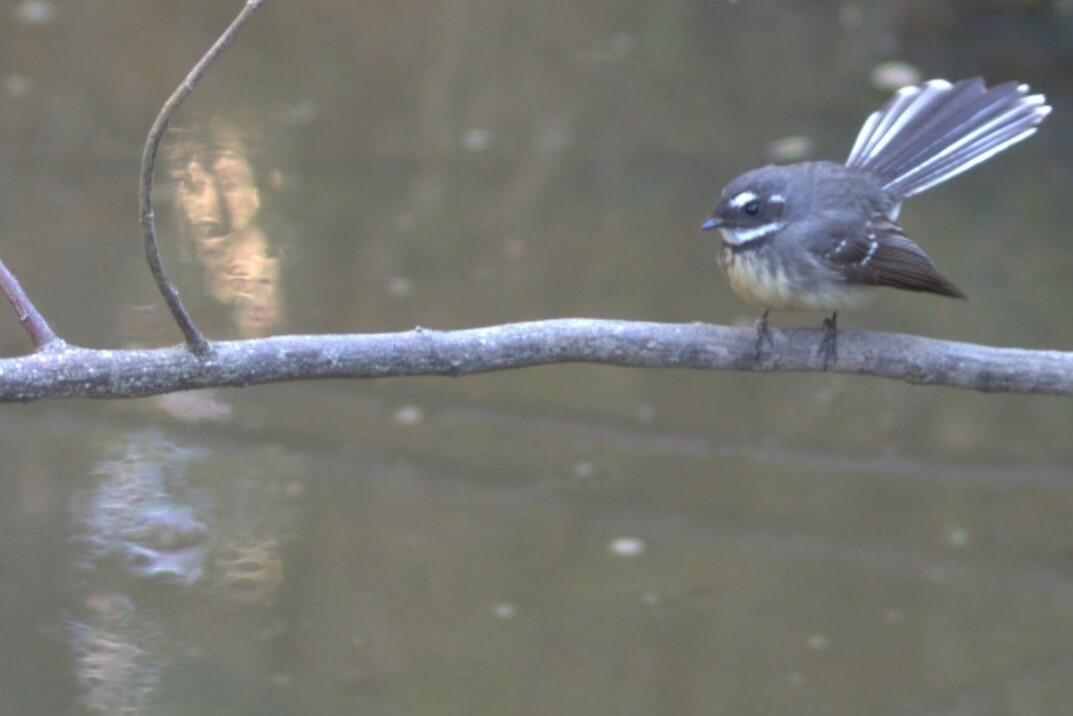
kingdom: Animalia
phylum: Chordata
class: Aves
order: Passeriformes
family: Rhipiduridae
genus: Rhipidura
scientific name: Rhipidura albiscapa
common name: Grey fantail
